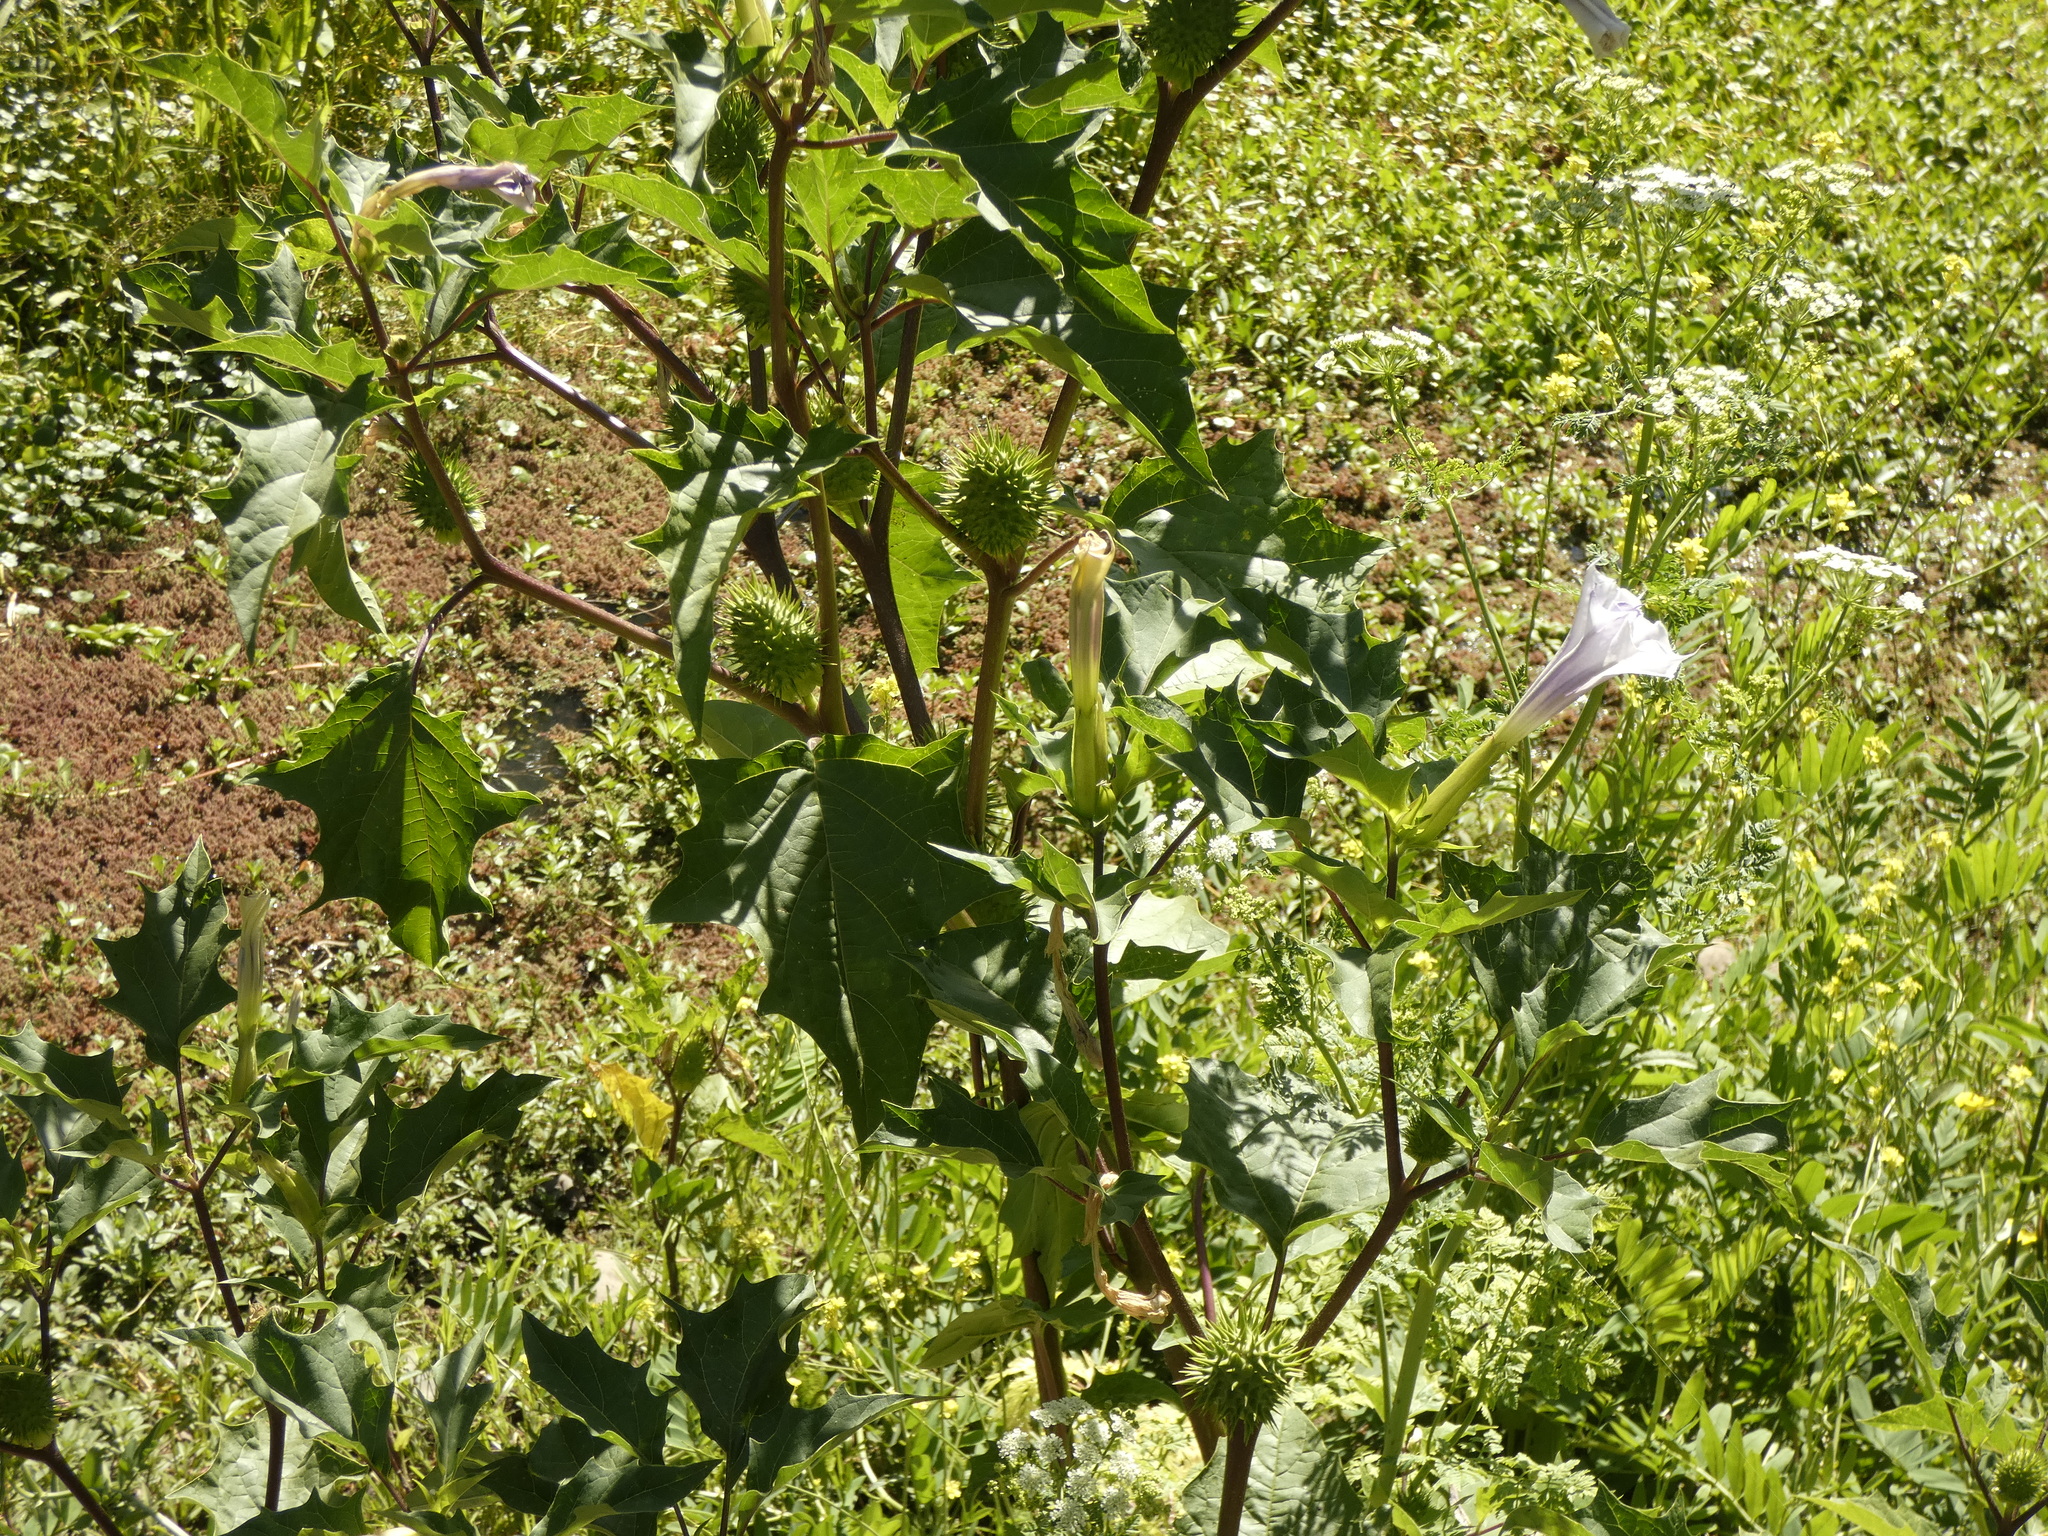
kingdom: Plantae
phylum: Tracheophyta
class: Magnoliopsida
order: Solanales
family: Solanaceae
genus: Datura
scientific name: Datura stramonium
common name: Thorn-apple
